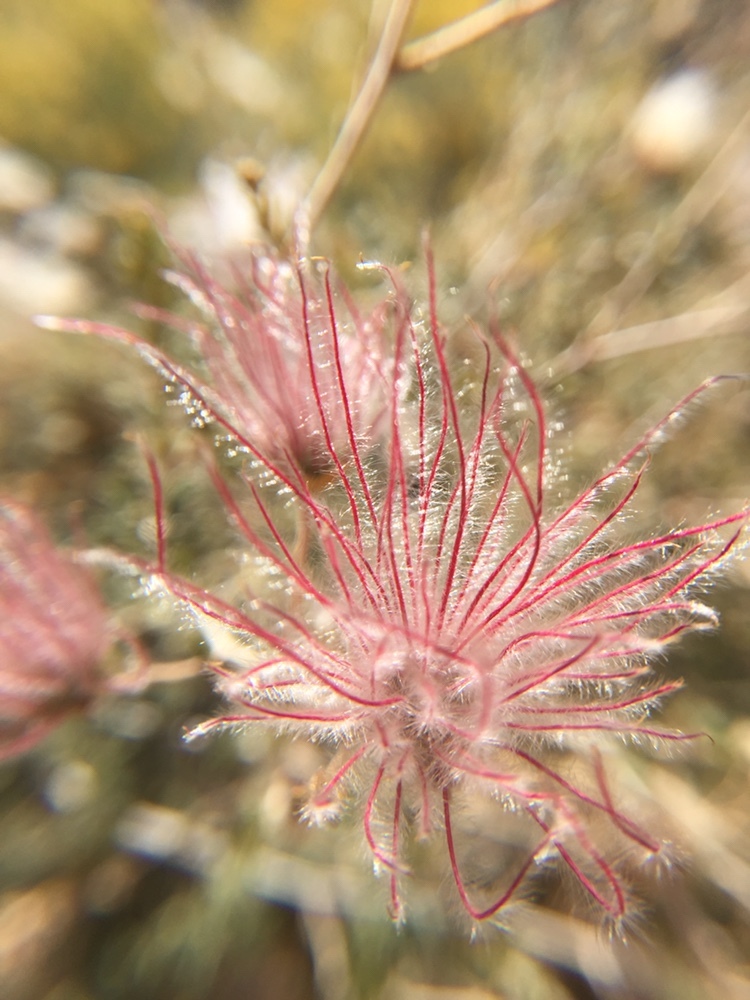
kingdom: Plantae
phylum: Tracheophyta
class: Magnoliopsida
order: Rosales
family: Rosaceae
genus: Fallugia
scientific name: Fallugia paradoxa
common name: Apache-plume
